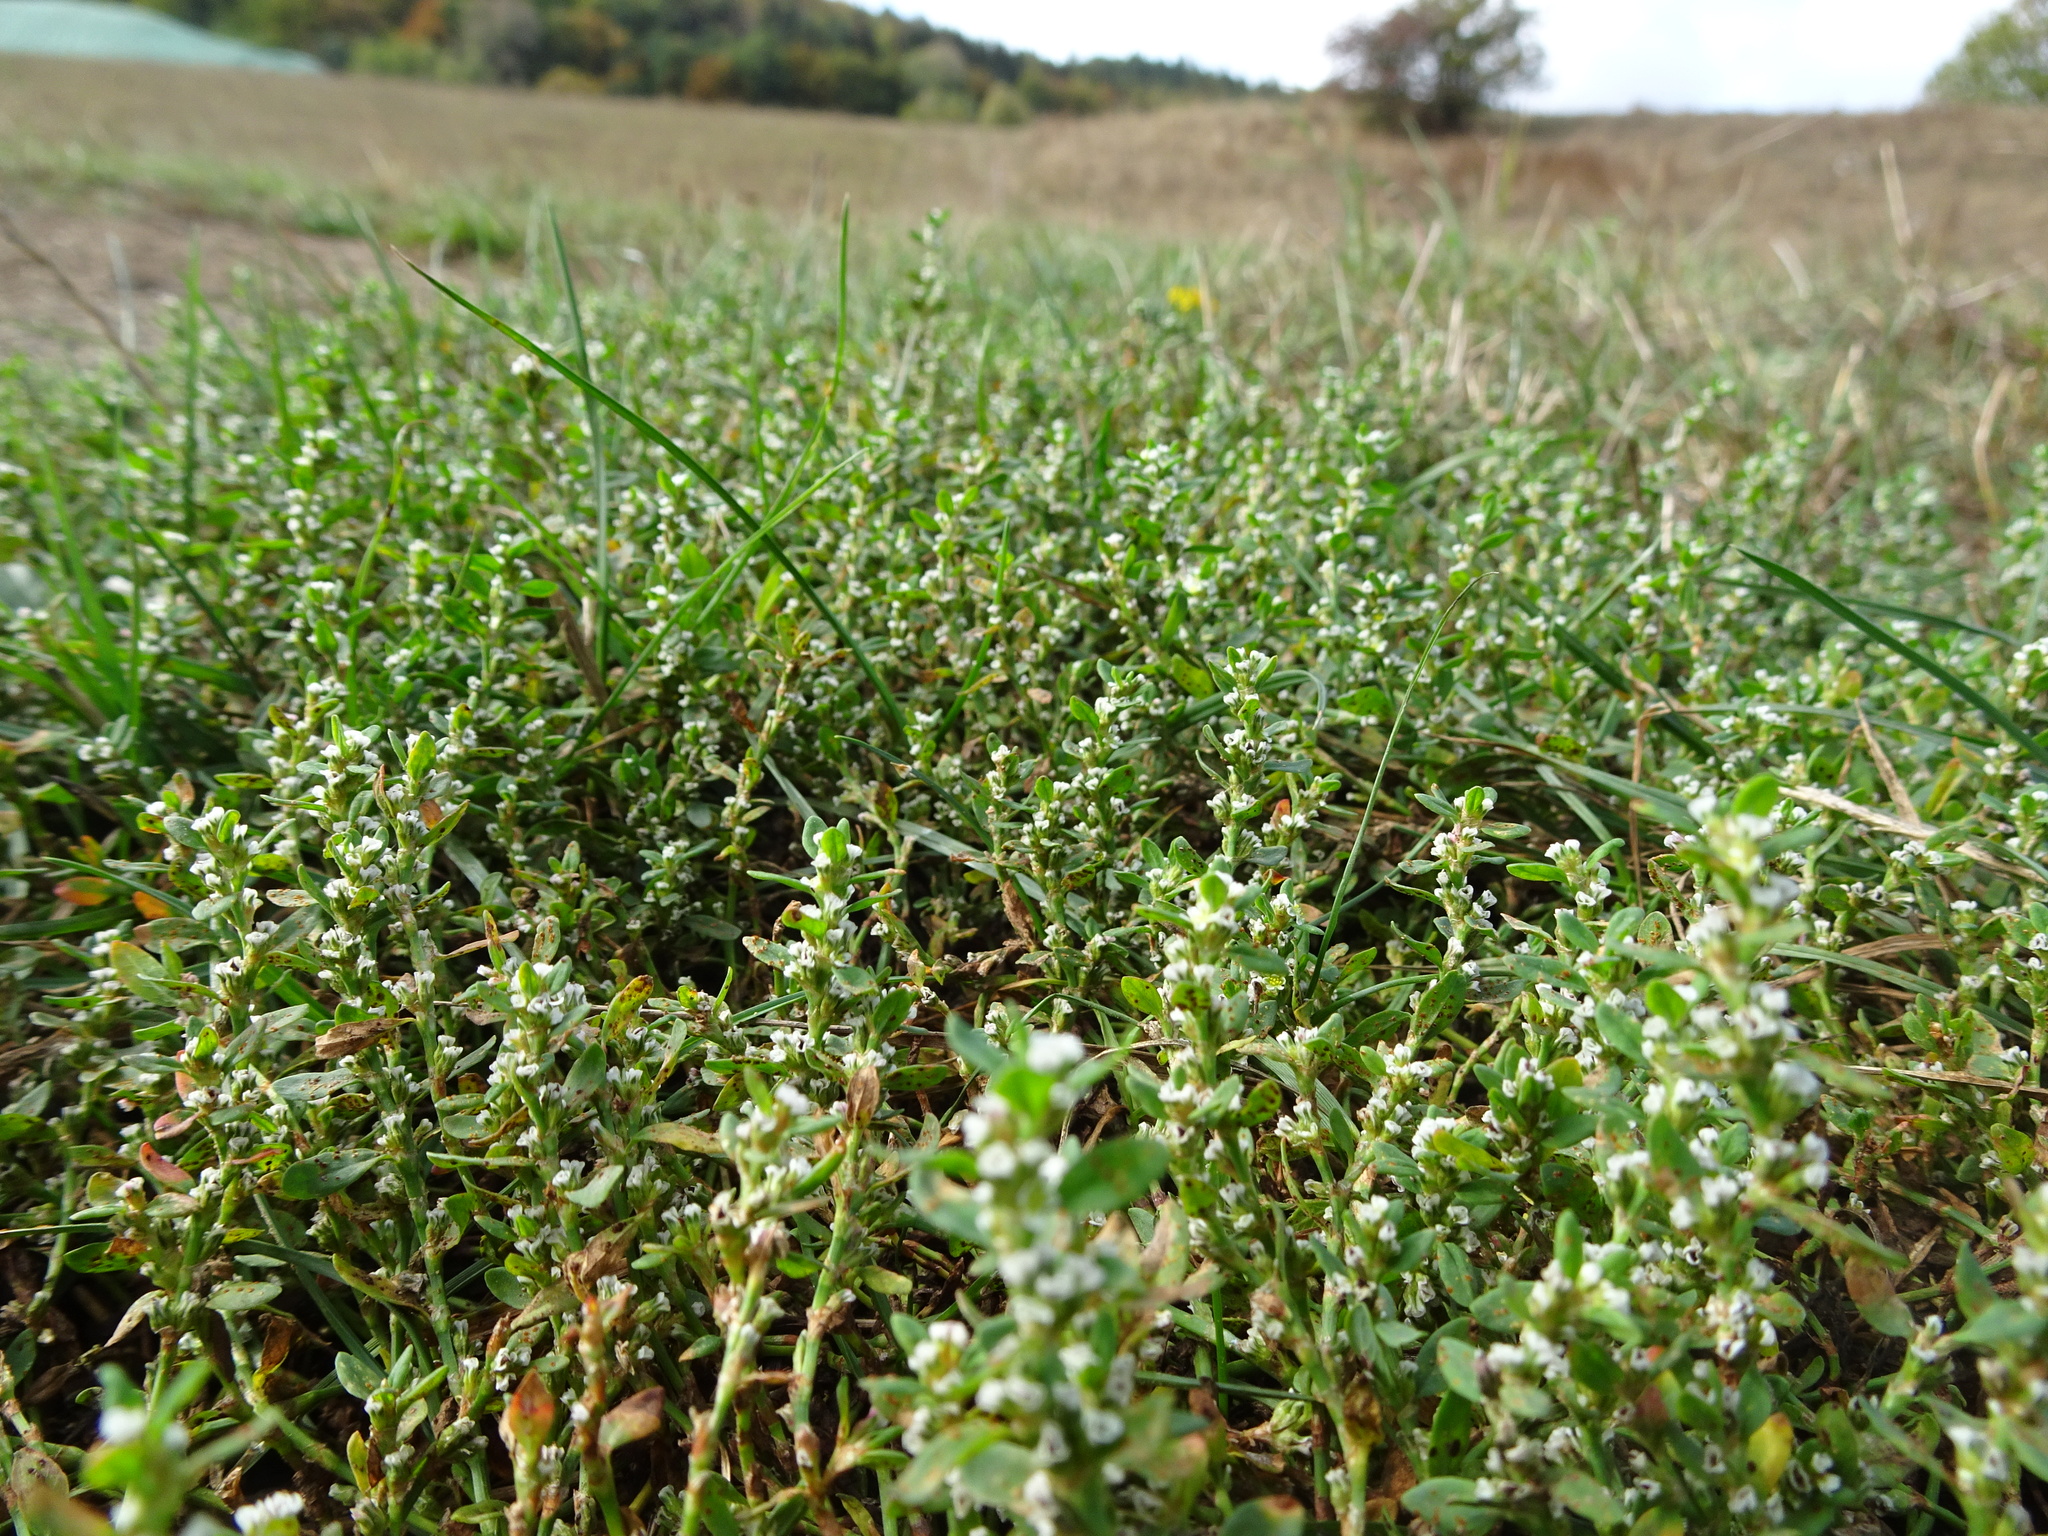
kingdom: Plantae
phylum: Tracheophyta
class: Magnoliopsida
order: Caryophyllales
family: Polygonaceae
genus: Polygonum
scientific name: Polygonum arenastrum
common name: Equal-leaved knotgrass
